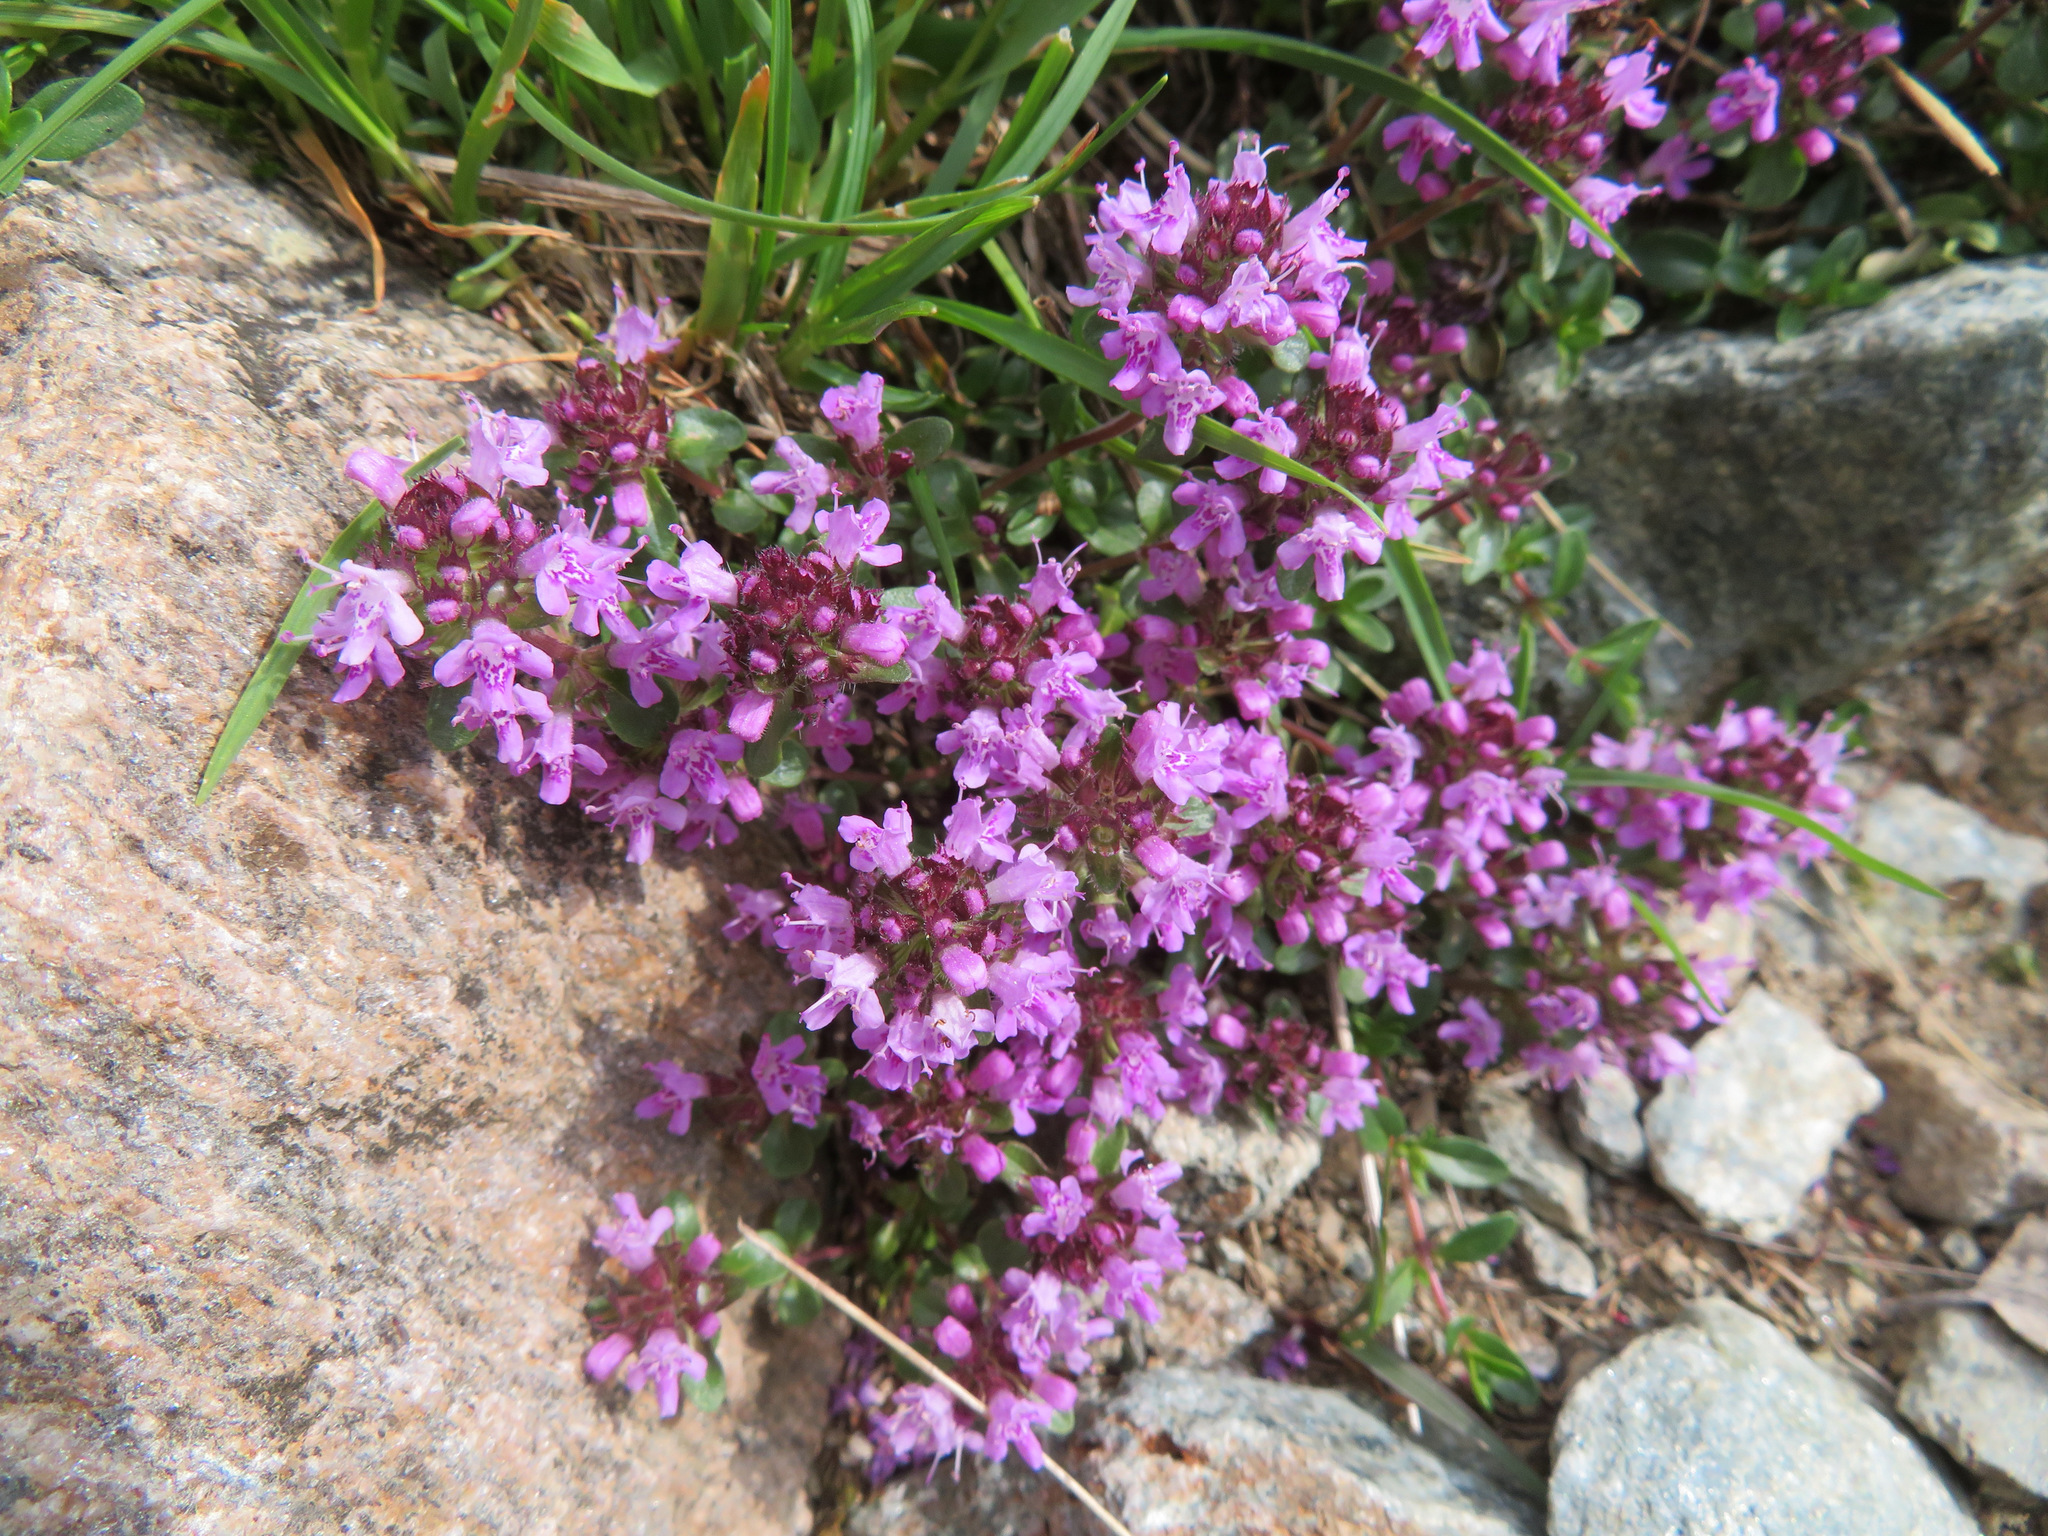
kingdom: Plantae
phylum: Tracheophyta
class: Magnoliopsida
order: Lamiales
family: Lamiaceae
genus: Thymus
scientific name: Thymus praecox
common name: Wild thyme
